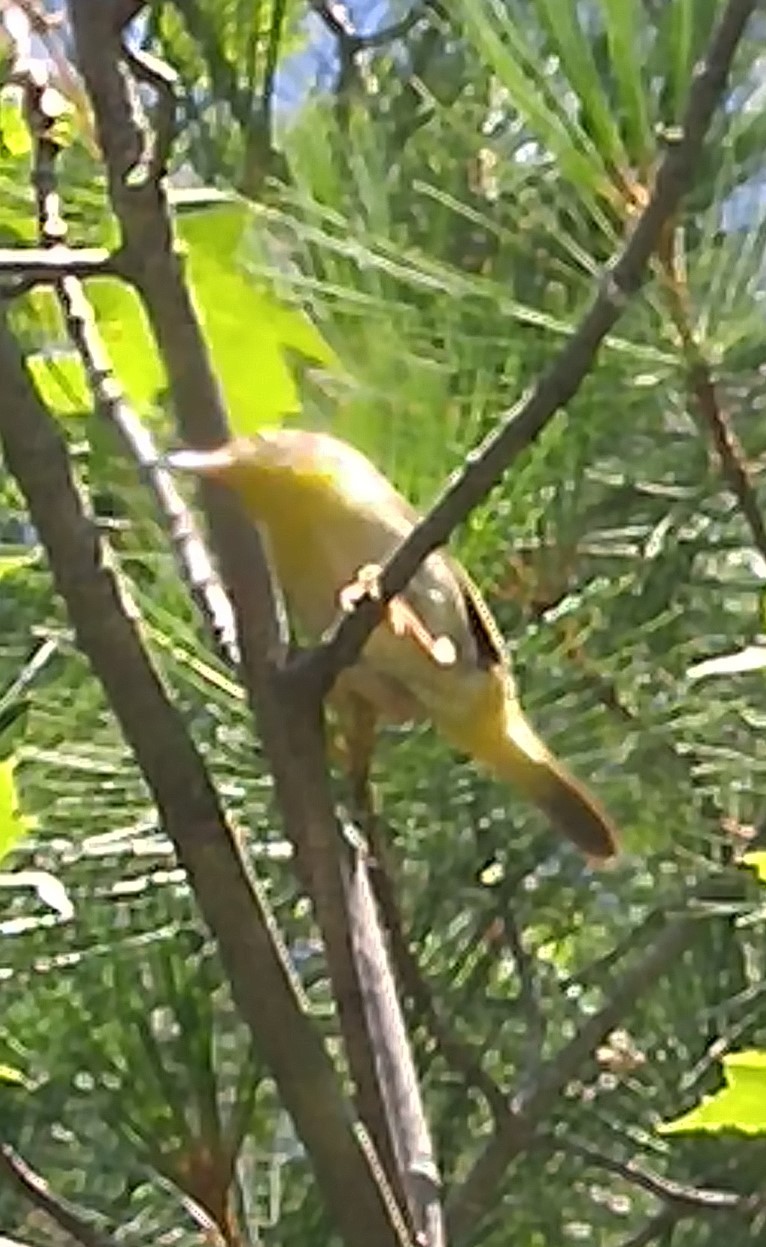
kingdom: Animalia
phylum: Chordata
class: Aves
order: Passeriformes
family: Parulidae
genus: Geothlypis
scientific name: Geothlypis trichas
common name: Common yellowthroat
